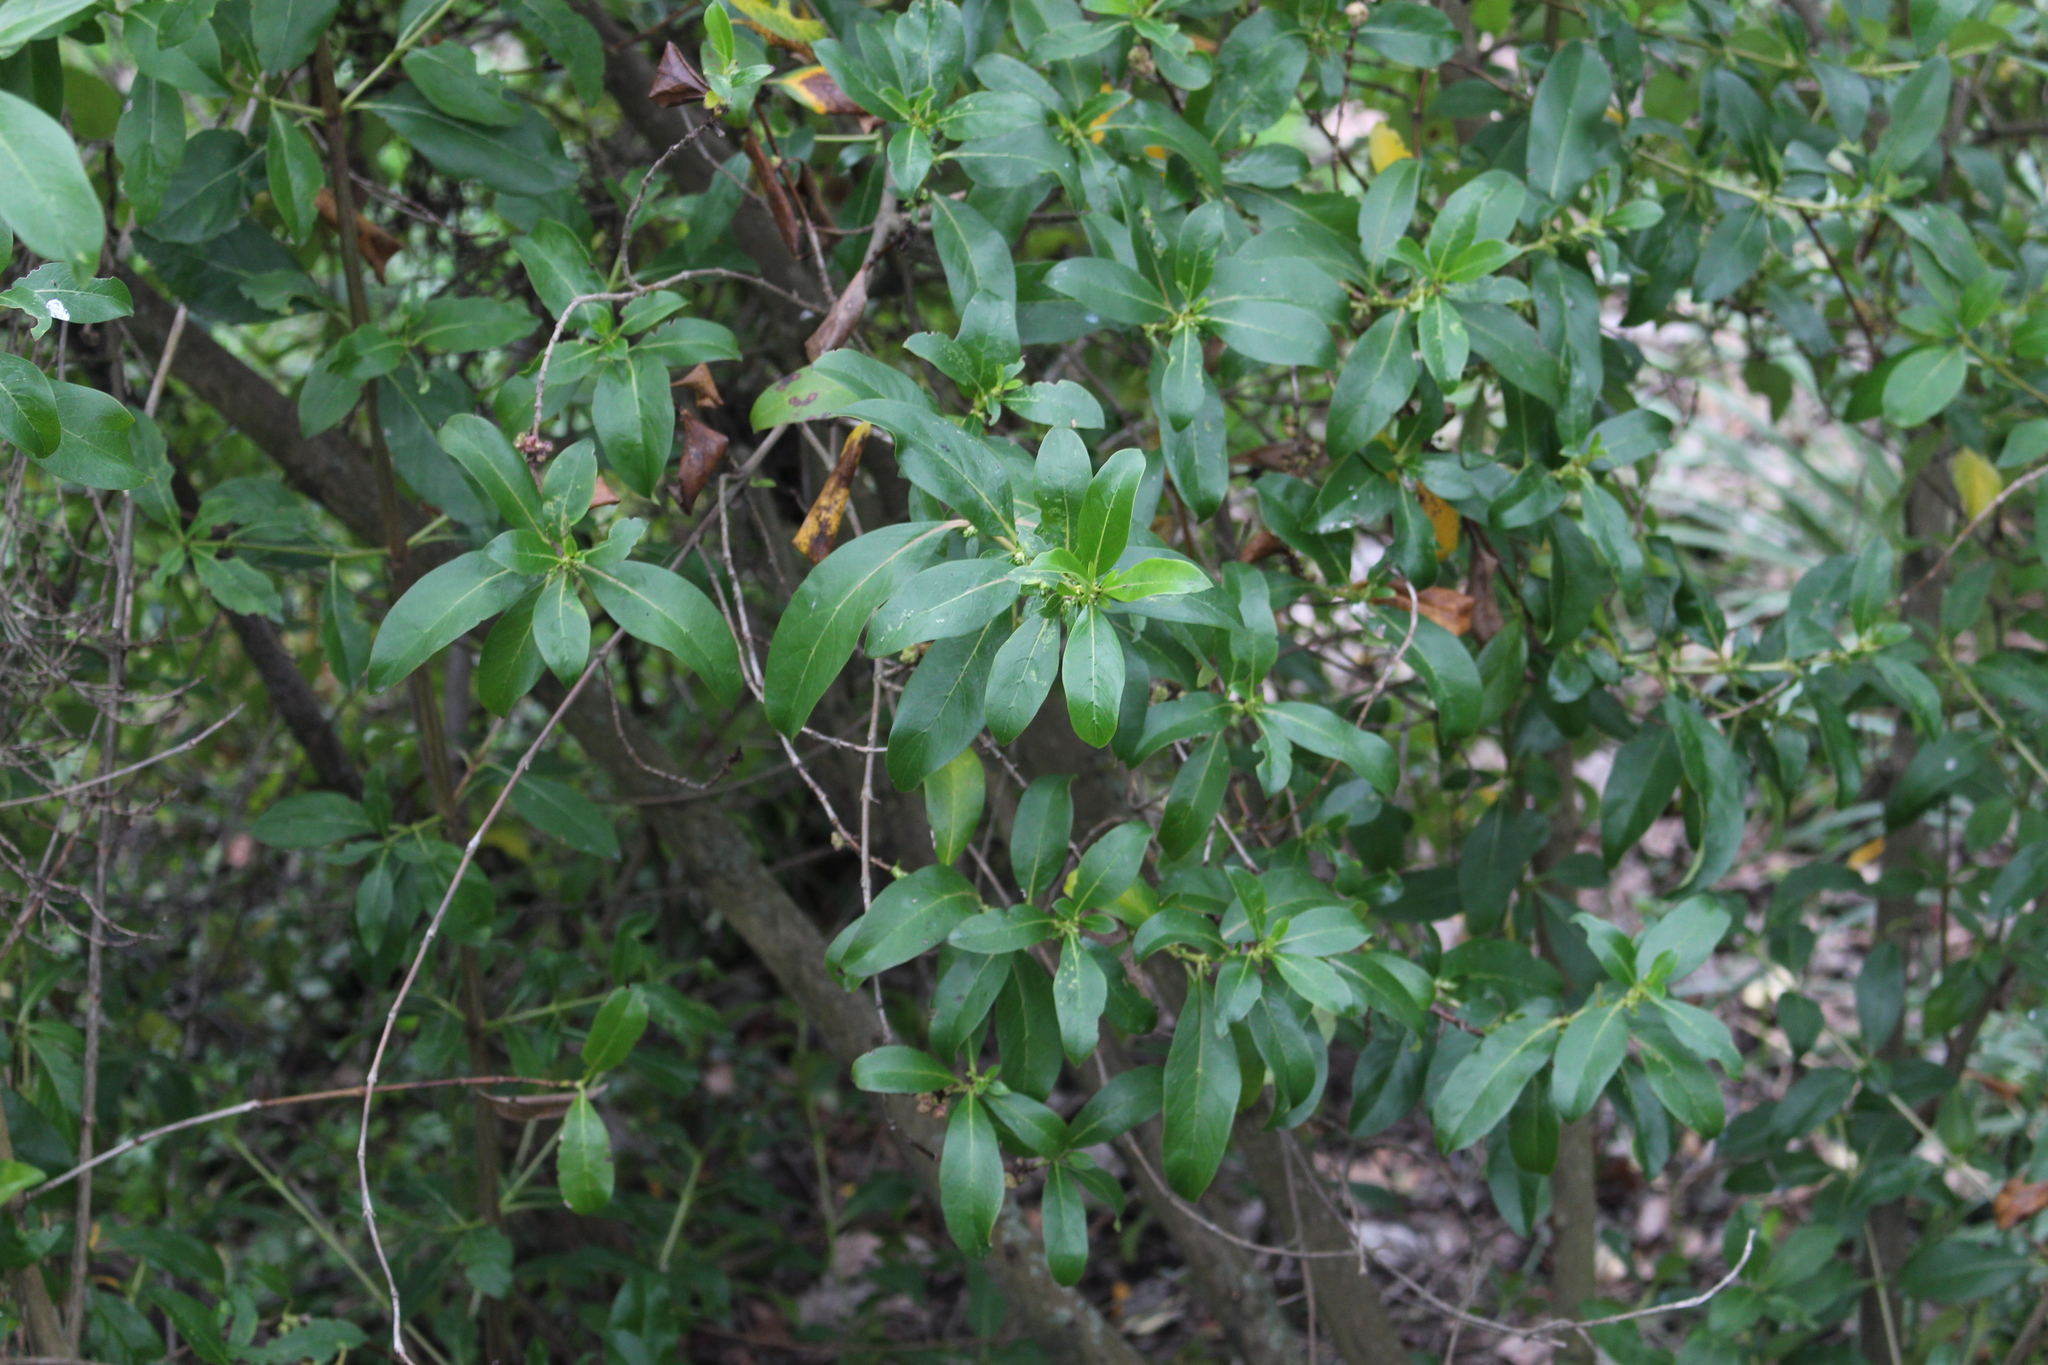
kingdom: Plantae
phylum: Tracheophyta
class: Magnoliopsida
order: Gentianales
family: Rubiaceae
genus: Coprosma
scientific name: Coprosma robusta
